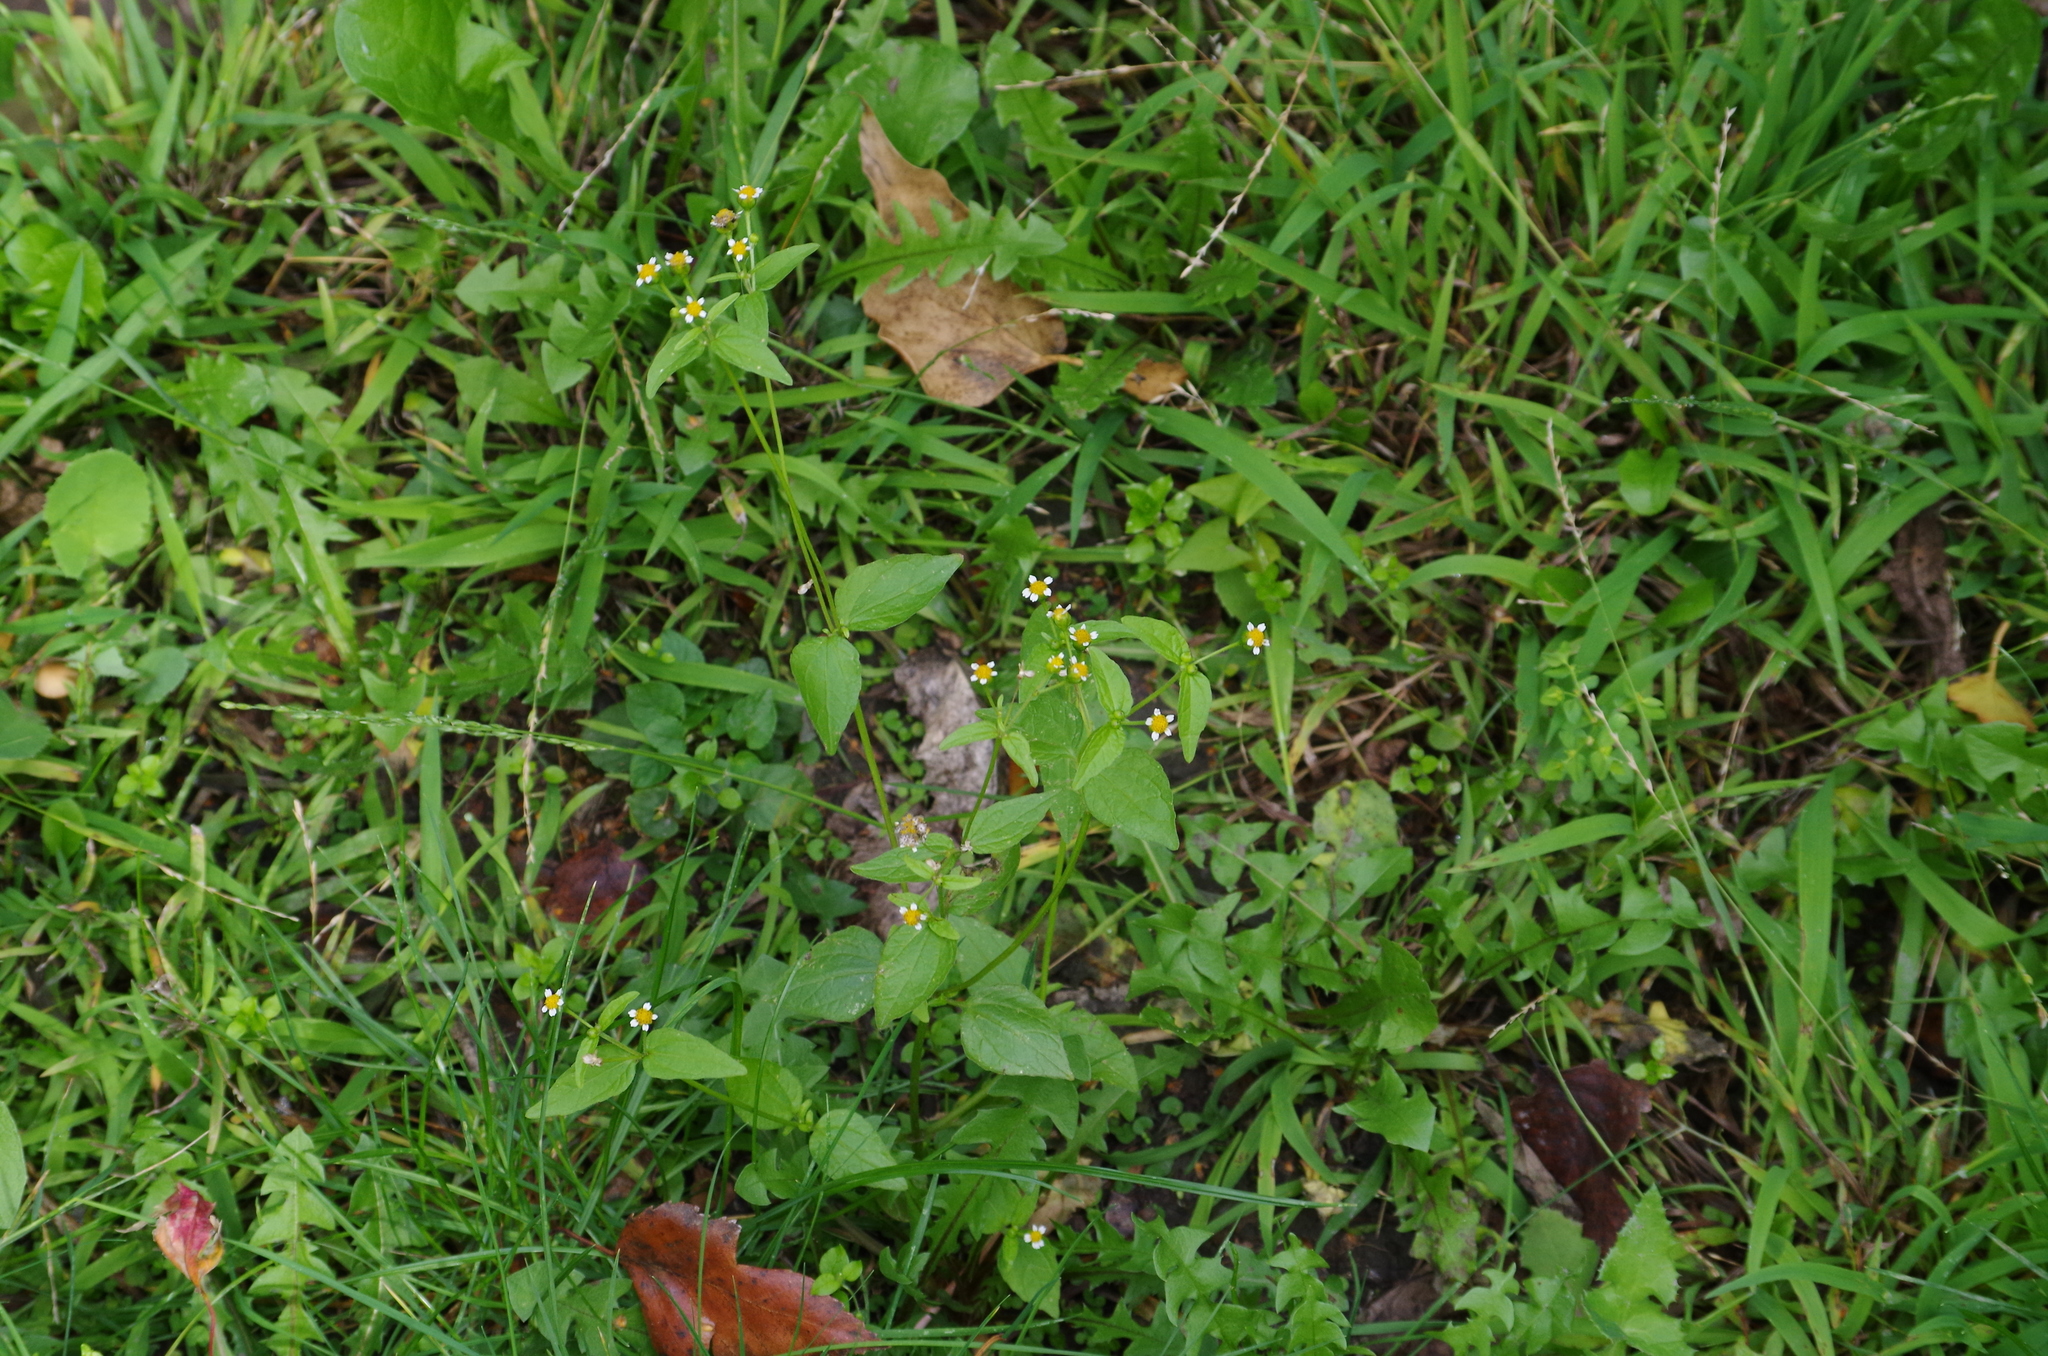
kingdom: Plantae
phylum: Tracheophyta
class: Magnoliopsida
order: Asterales
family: Asteraceae
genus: Galinsoga
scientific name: Galinsoga parviflora
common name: Gallant soldier
